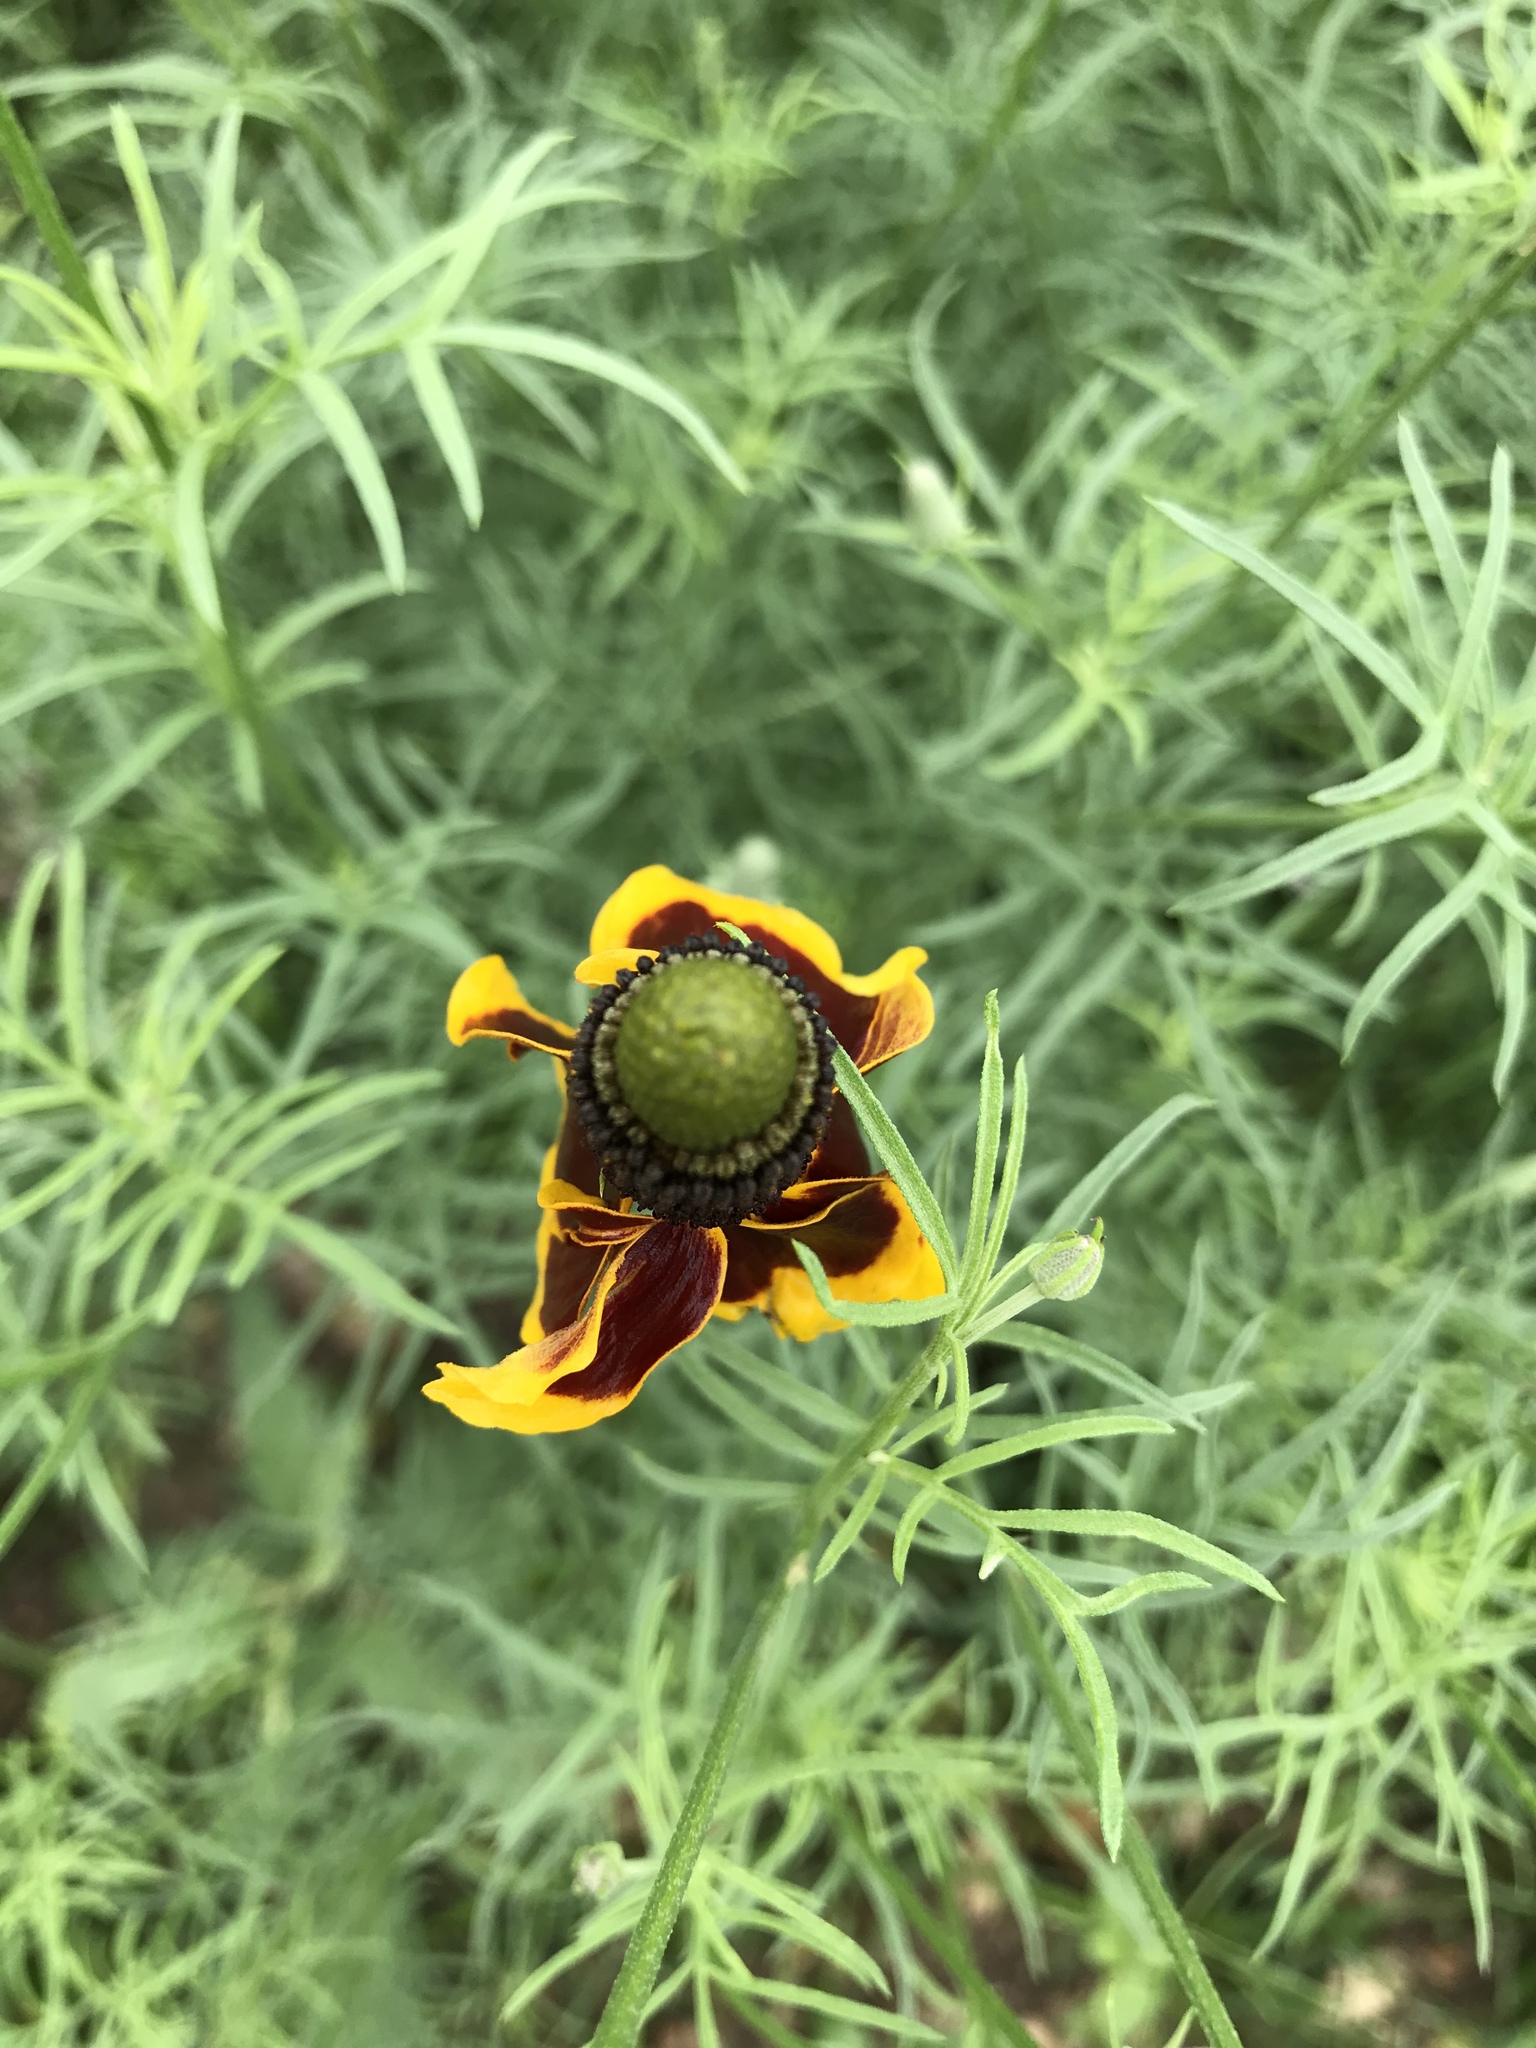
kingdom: Plantae
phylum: Tracheophyta
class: Magnoliopsida
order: Asterales
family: Asteraceae
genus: Ratibida
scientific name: Ratibida columnifera
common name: Prairie coneflower
